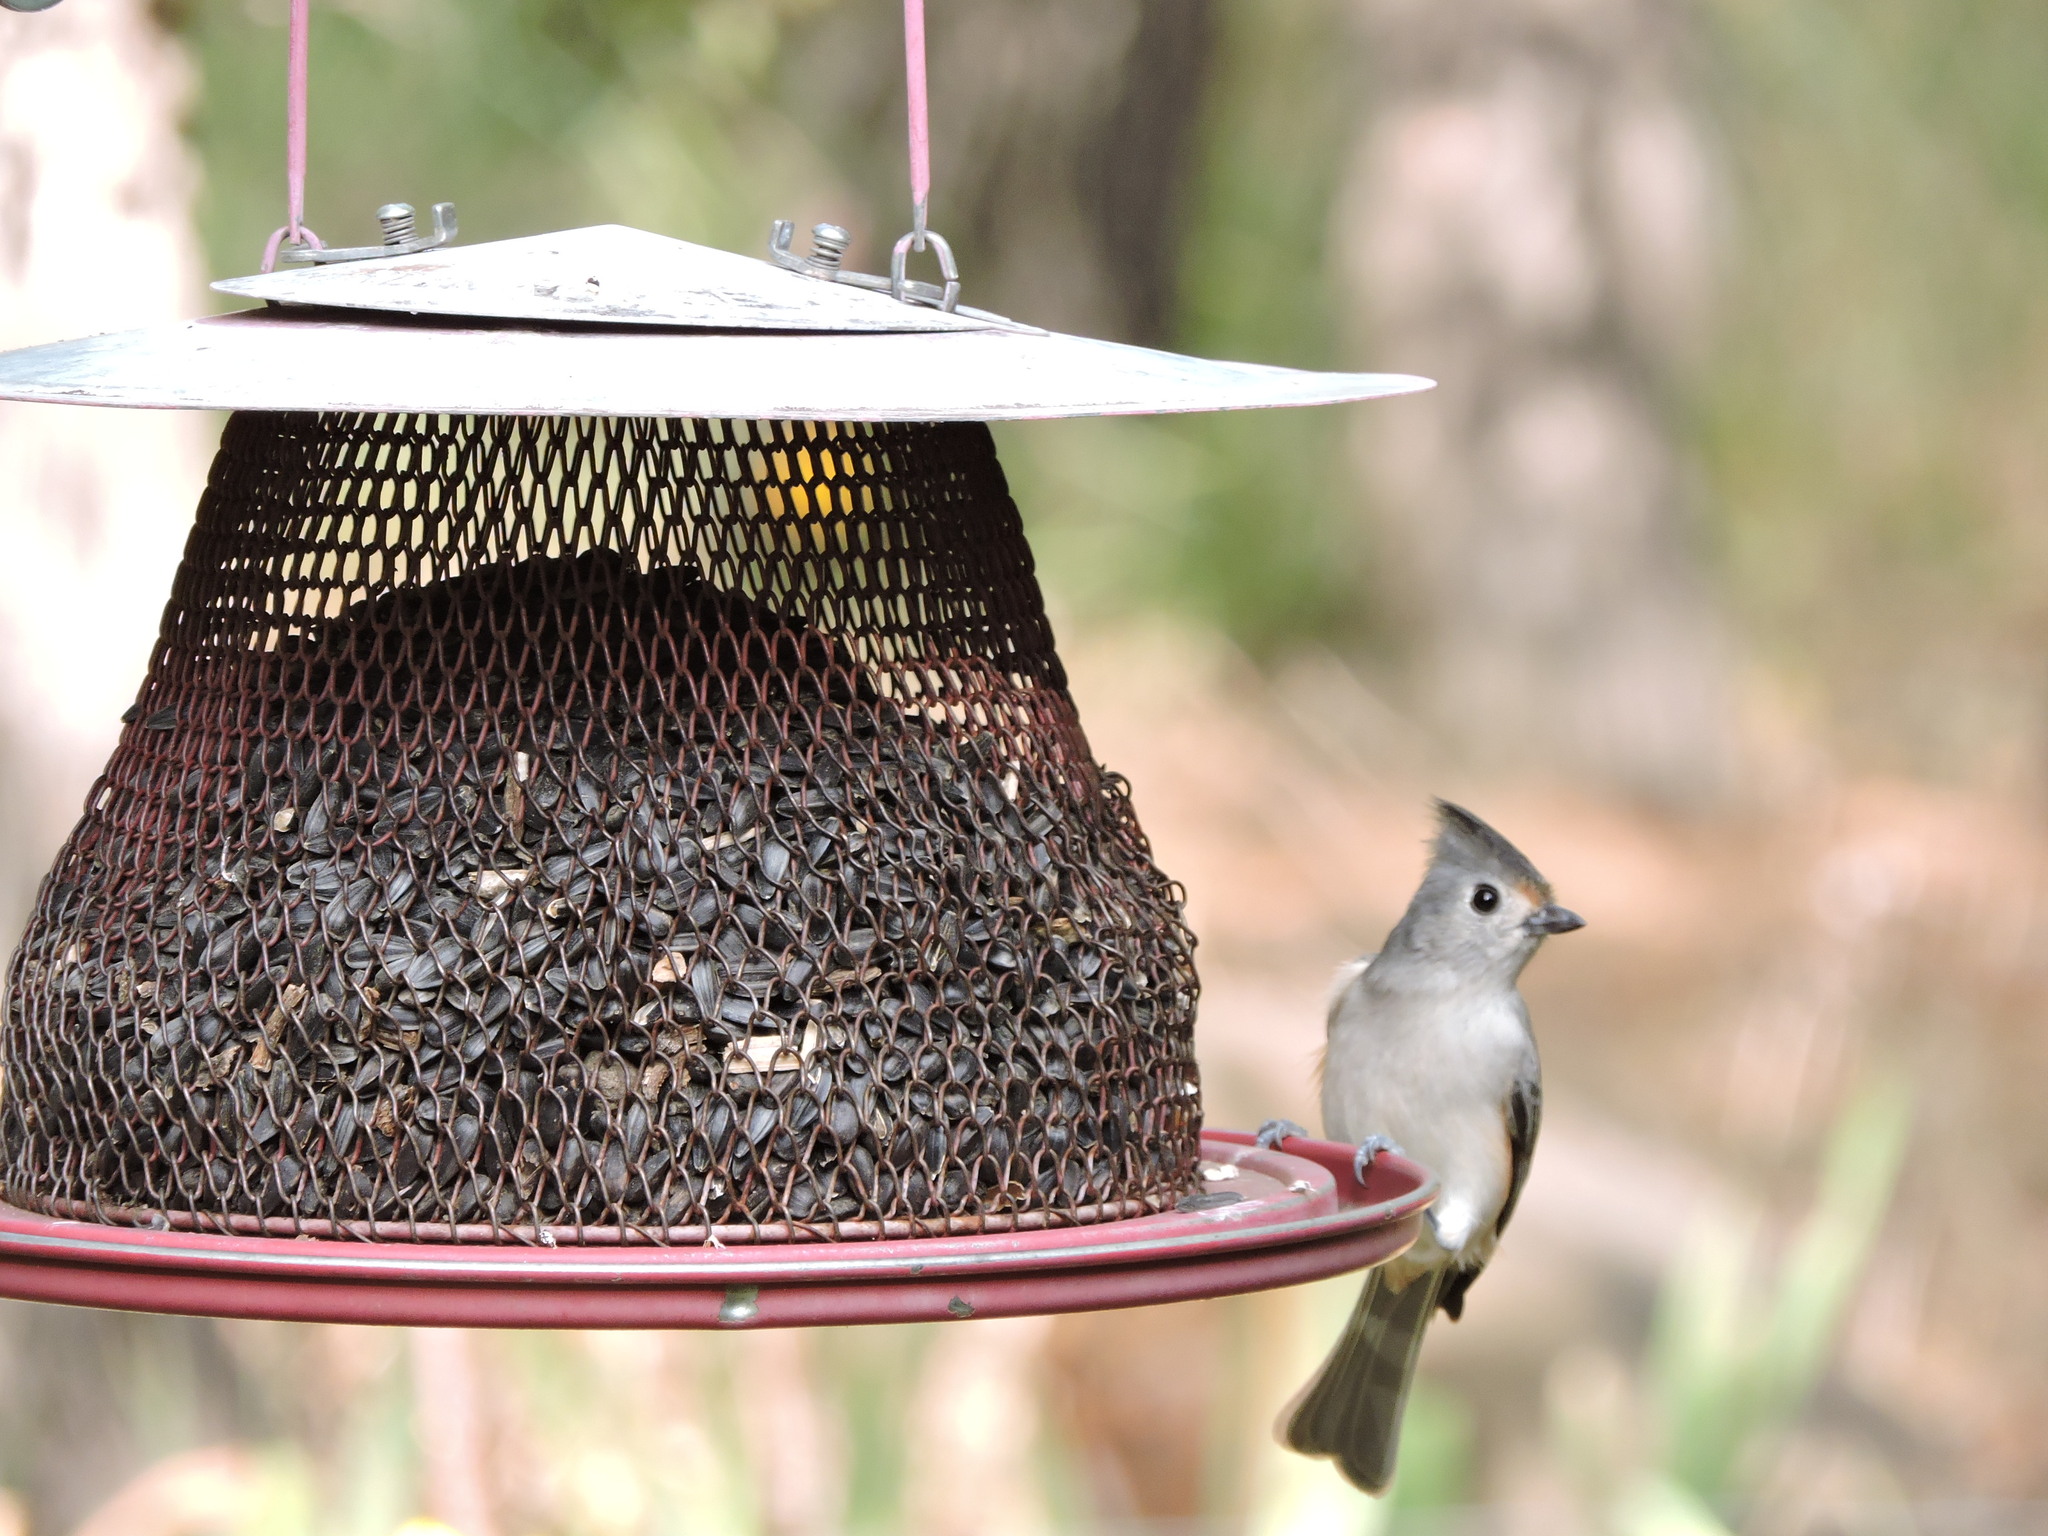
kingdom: Animalia
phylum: Chordata
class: Aves
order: Passeriformes
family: Paridae
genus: Baeolophus
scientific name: Baeolophus
